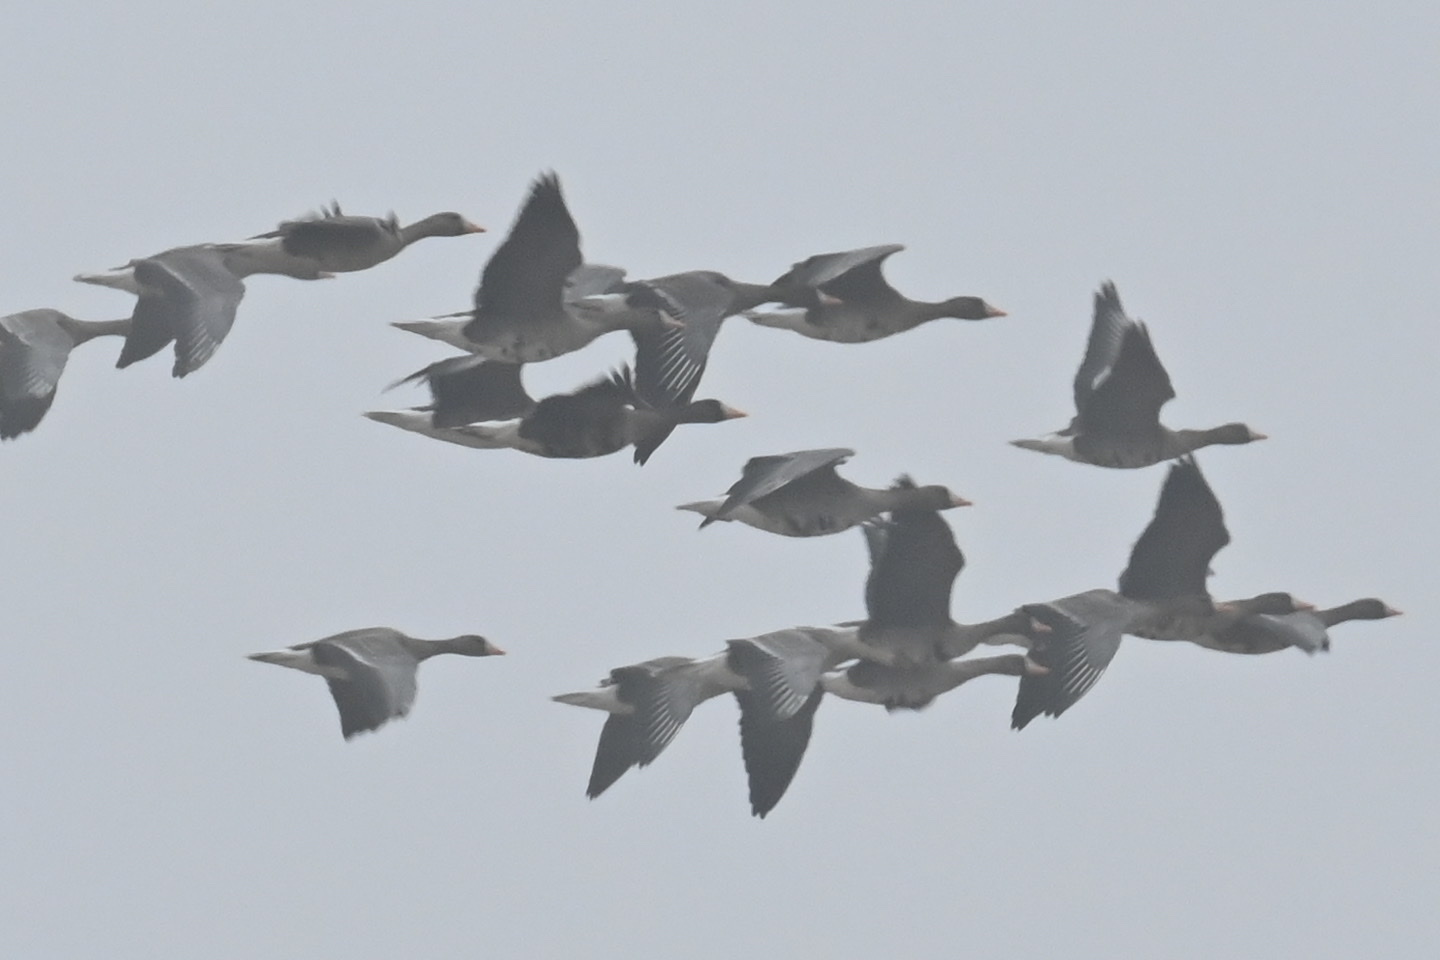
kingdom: Animalia
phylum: Chordata
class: Aves
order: Anseriformes
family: Anatidae
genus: Anser
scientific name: Anser albifrons
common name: Greater white-fronted goose
